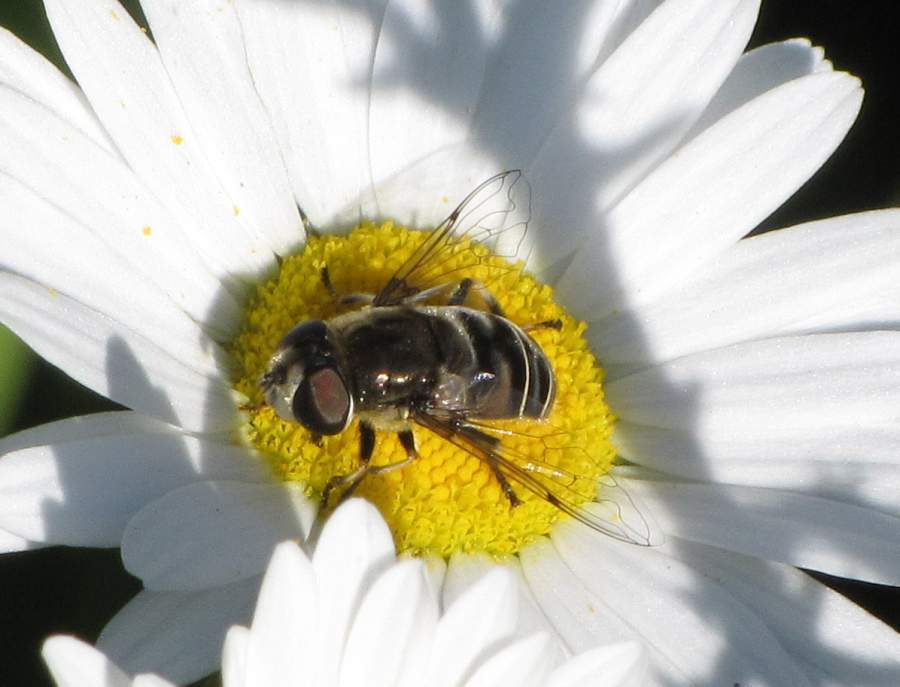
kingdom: Animalia
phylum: Arthropoda
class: Insecta
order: Diptera
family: Syrphidae
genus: Eristalis
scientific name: Eristalis dimidiata
